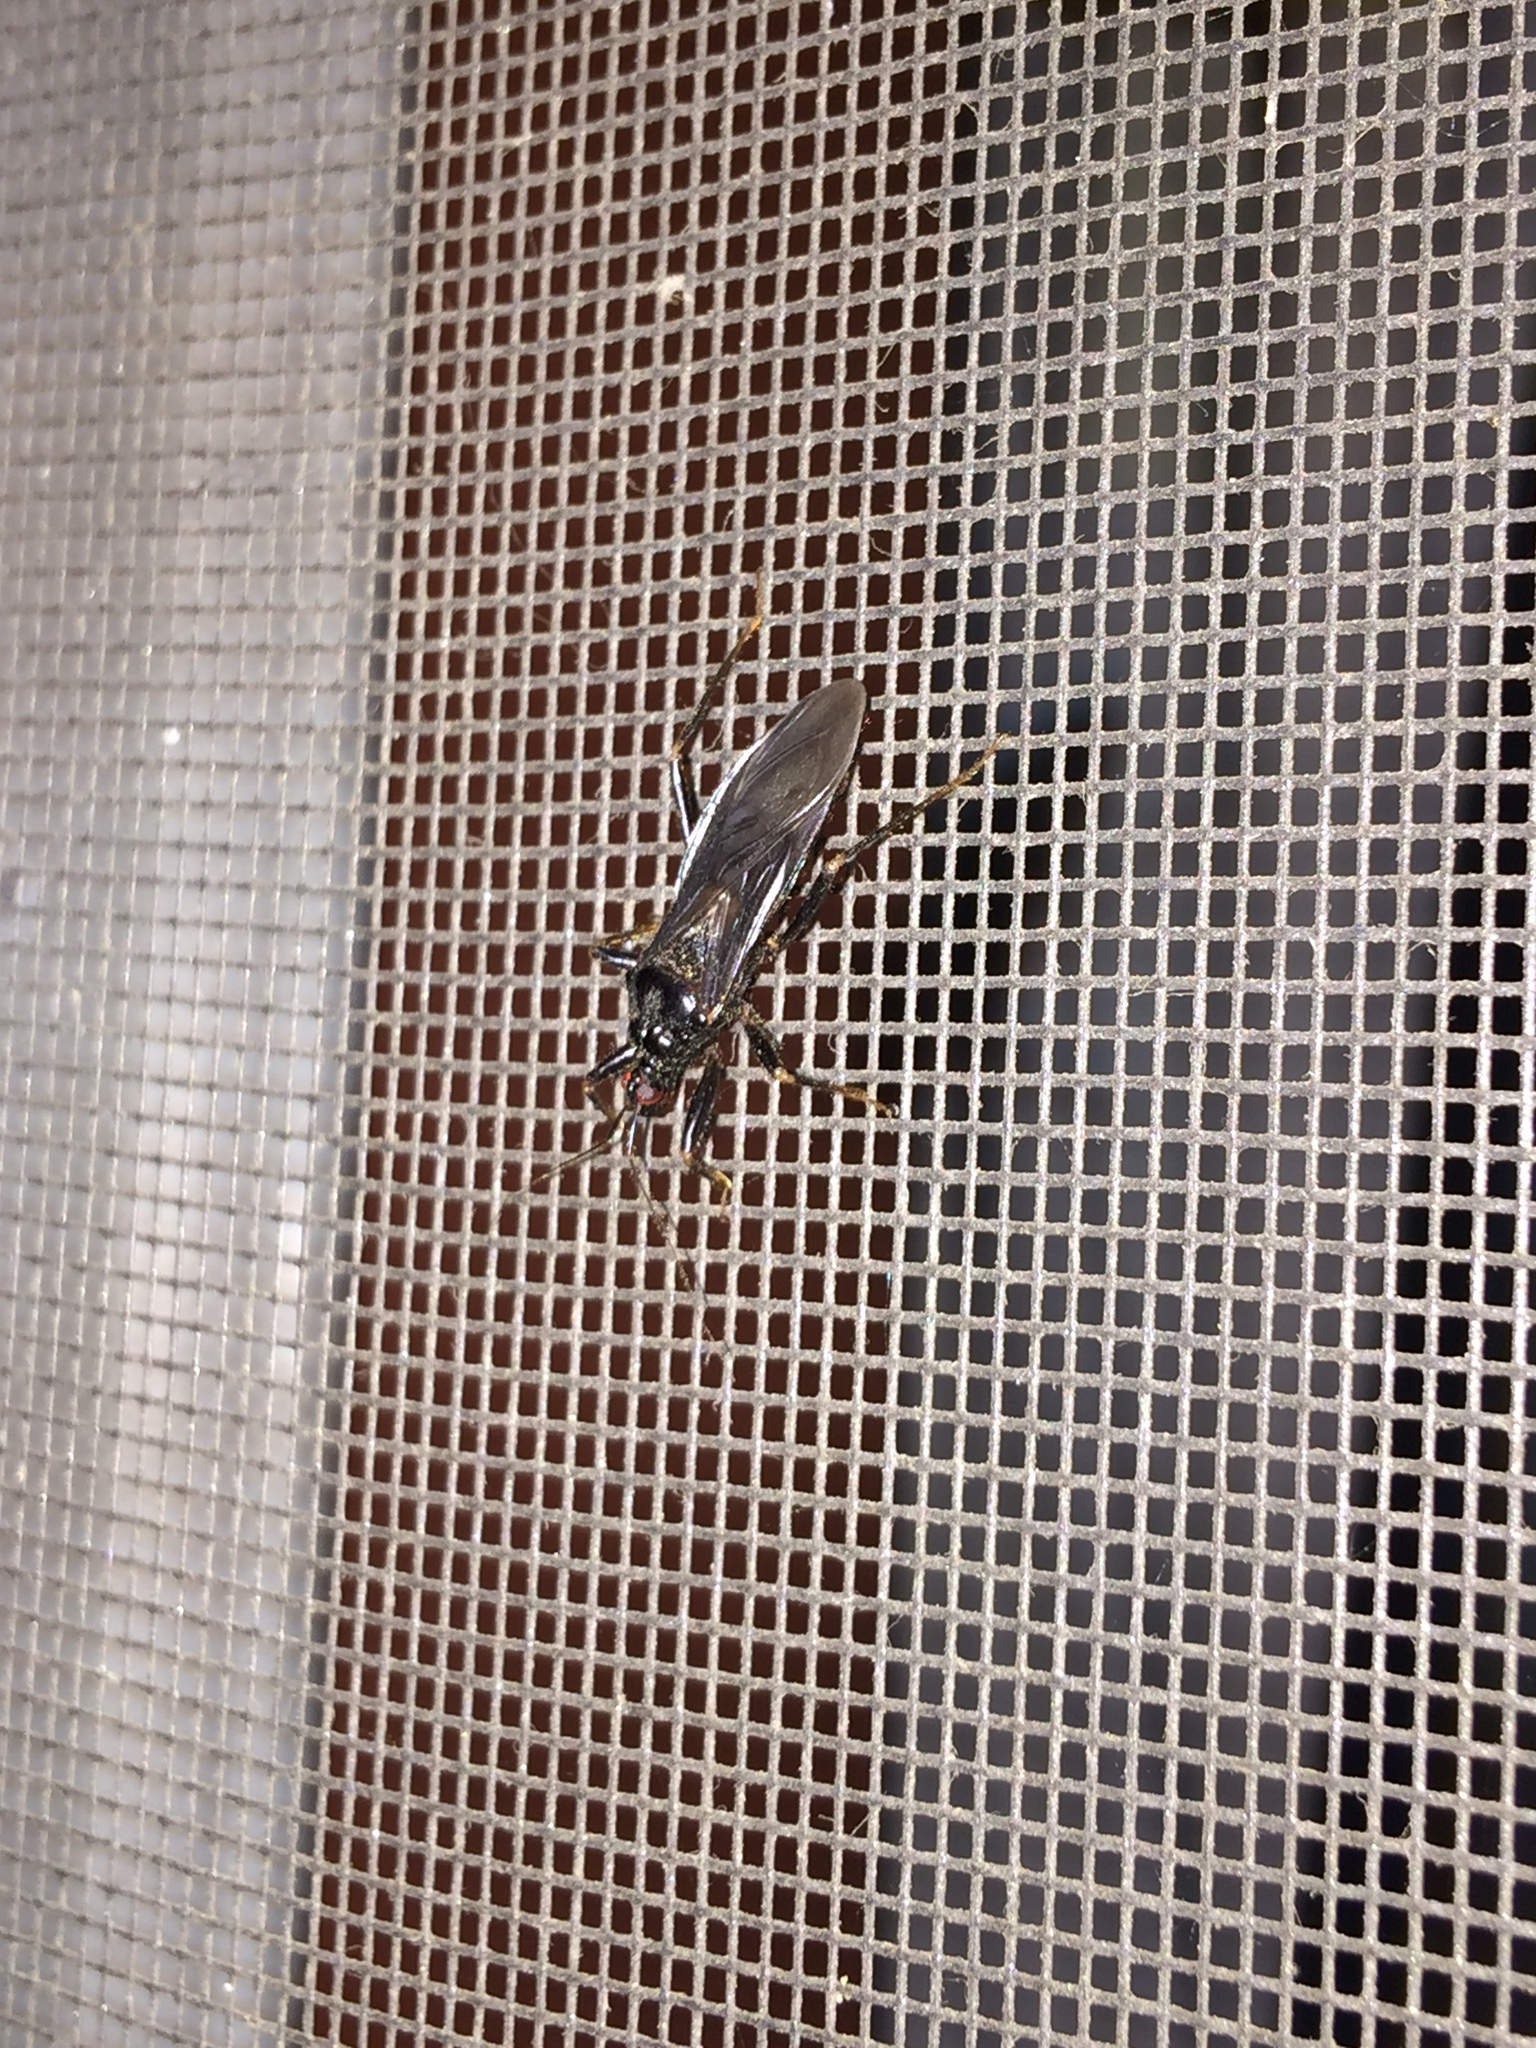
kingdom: Animalia
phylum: Arthropoda
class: Insecta
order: Hemiptera
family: Reduviidae
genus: Reduvius
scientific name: Reduvius personatus
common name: Masked hunter
